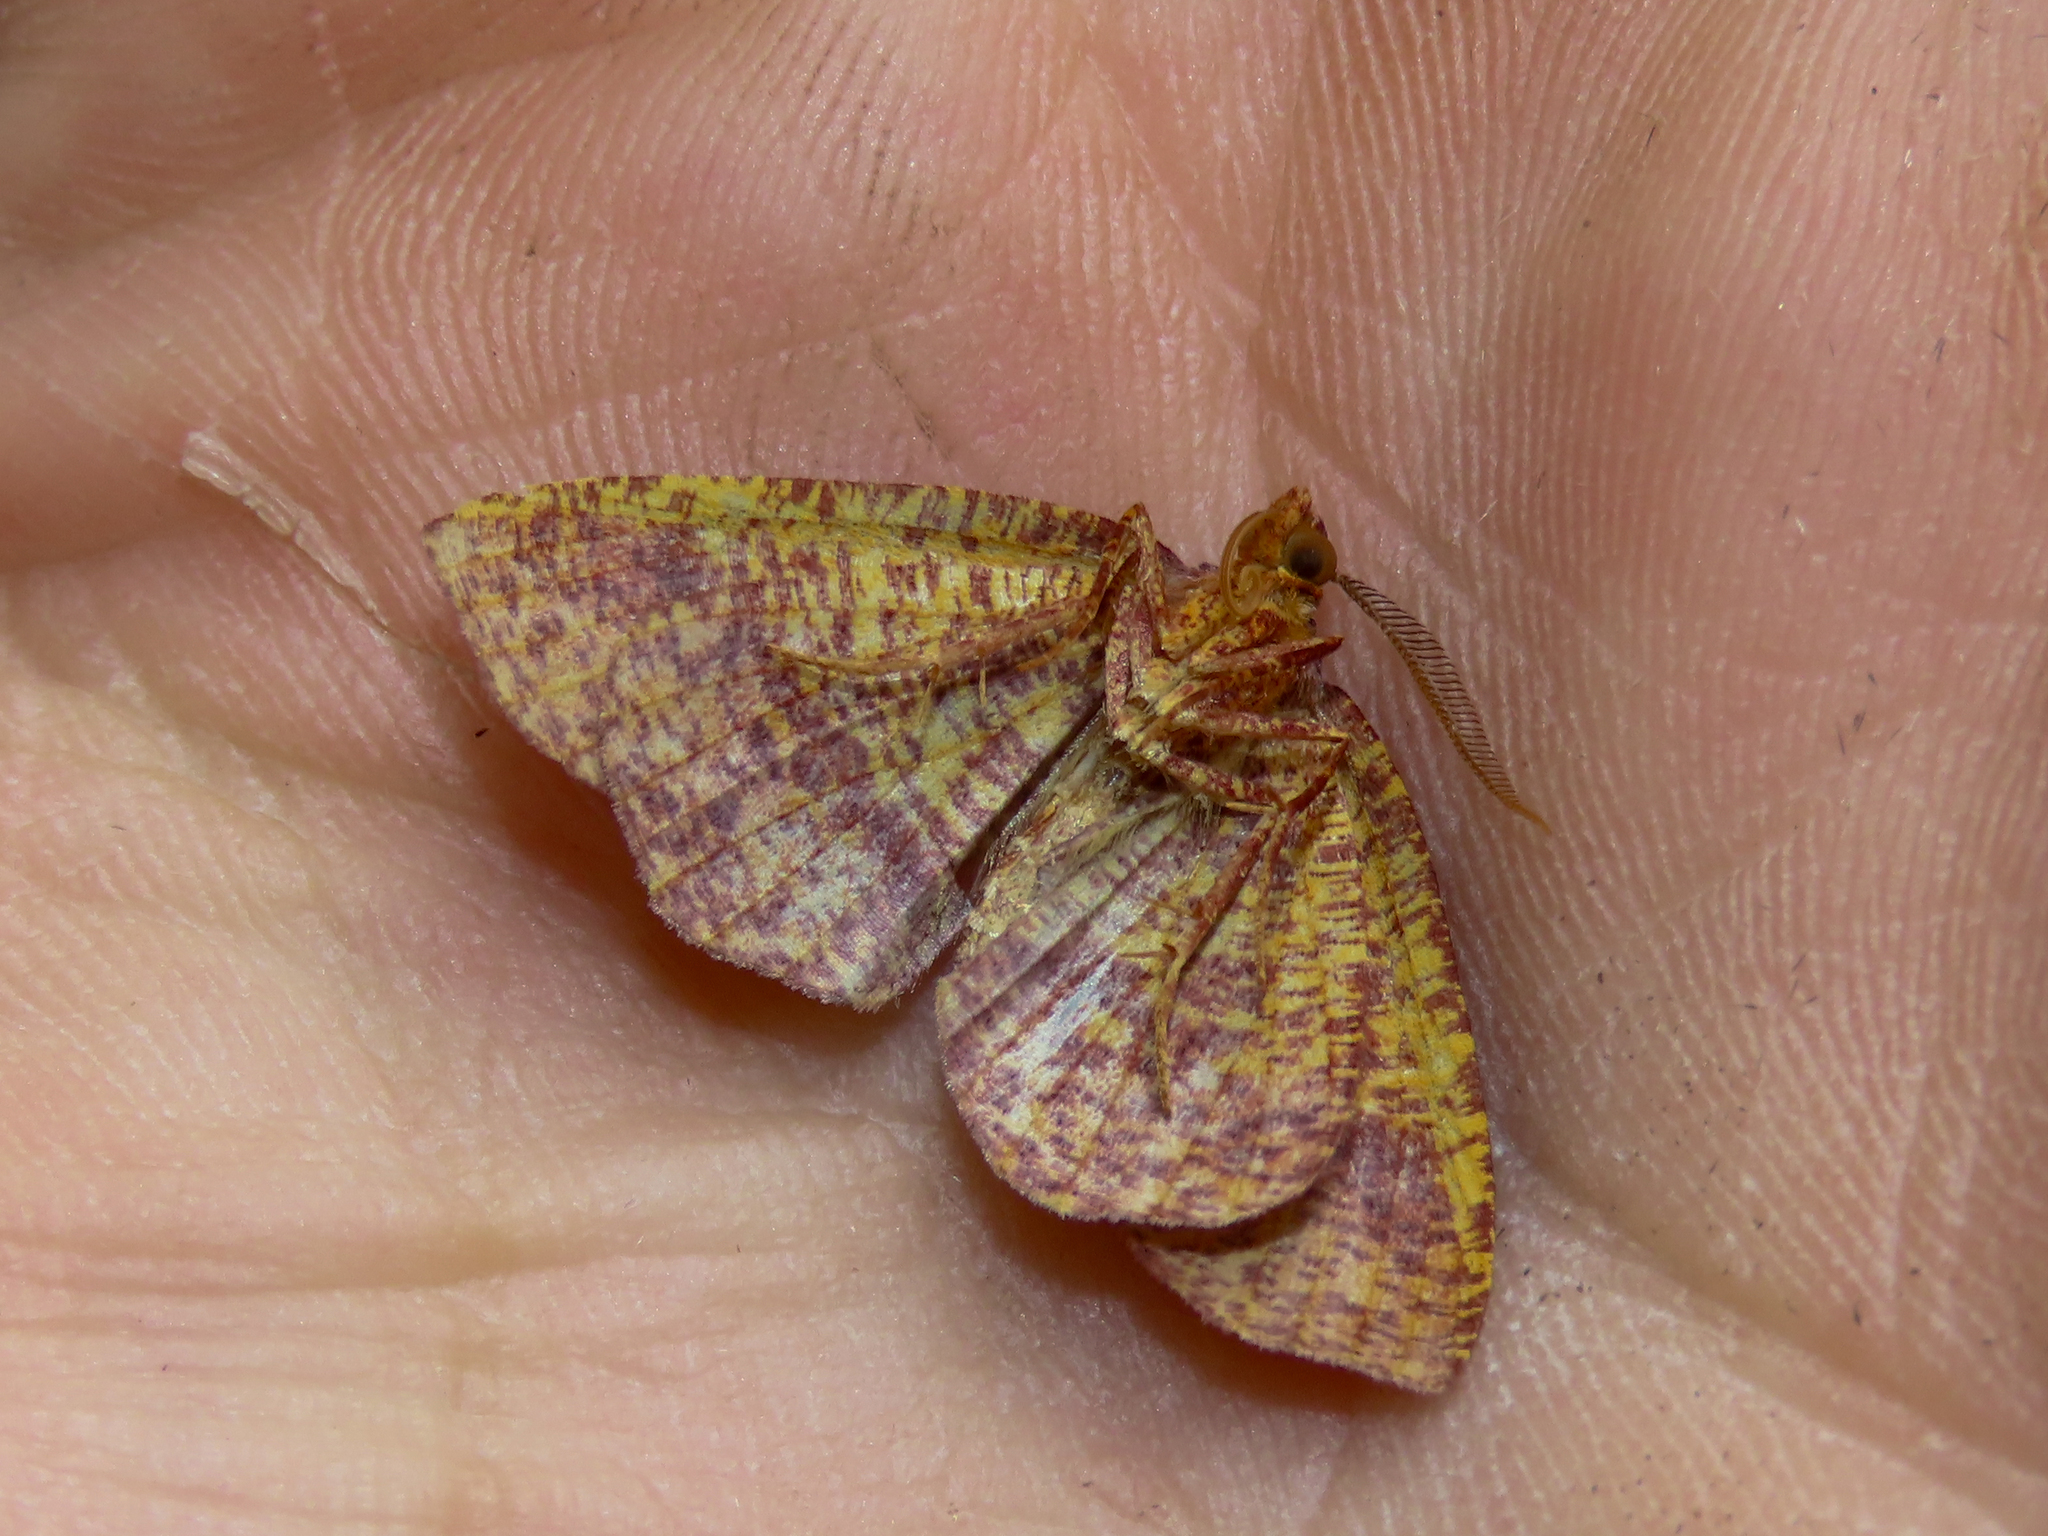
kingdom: Animalia
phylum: Arthropoda
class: Insecta
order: Lepidoptera
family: Geometridae
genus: Plagodis
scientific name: Plagodis pulveraria
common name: Barred umber
